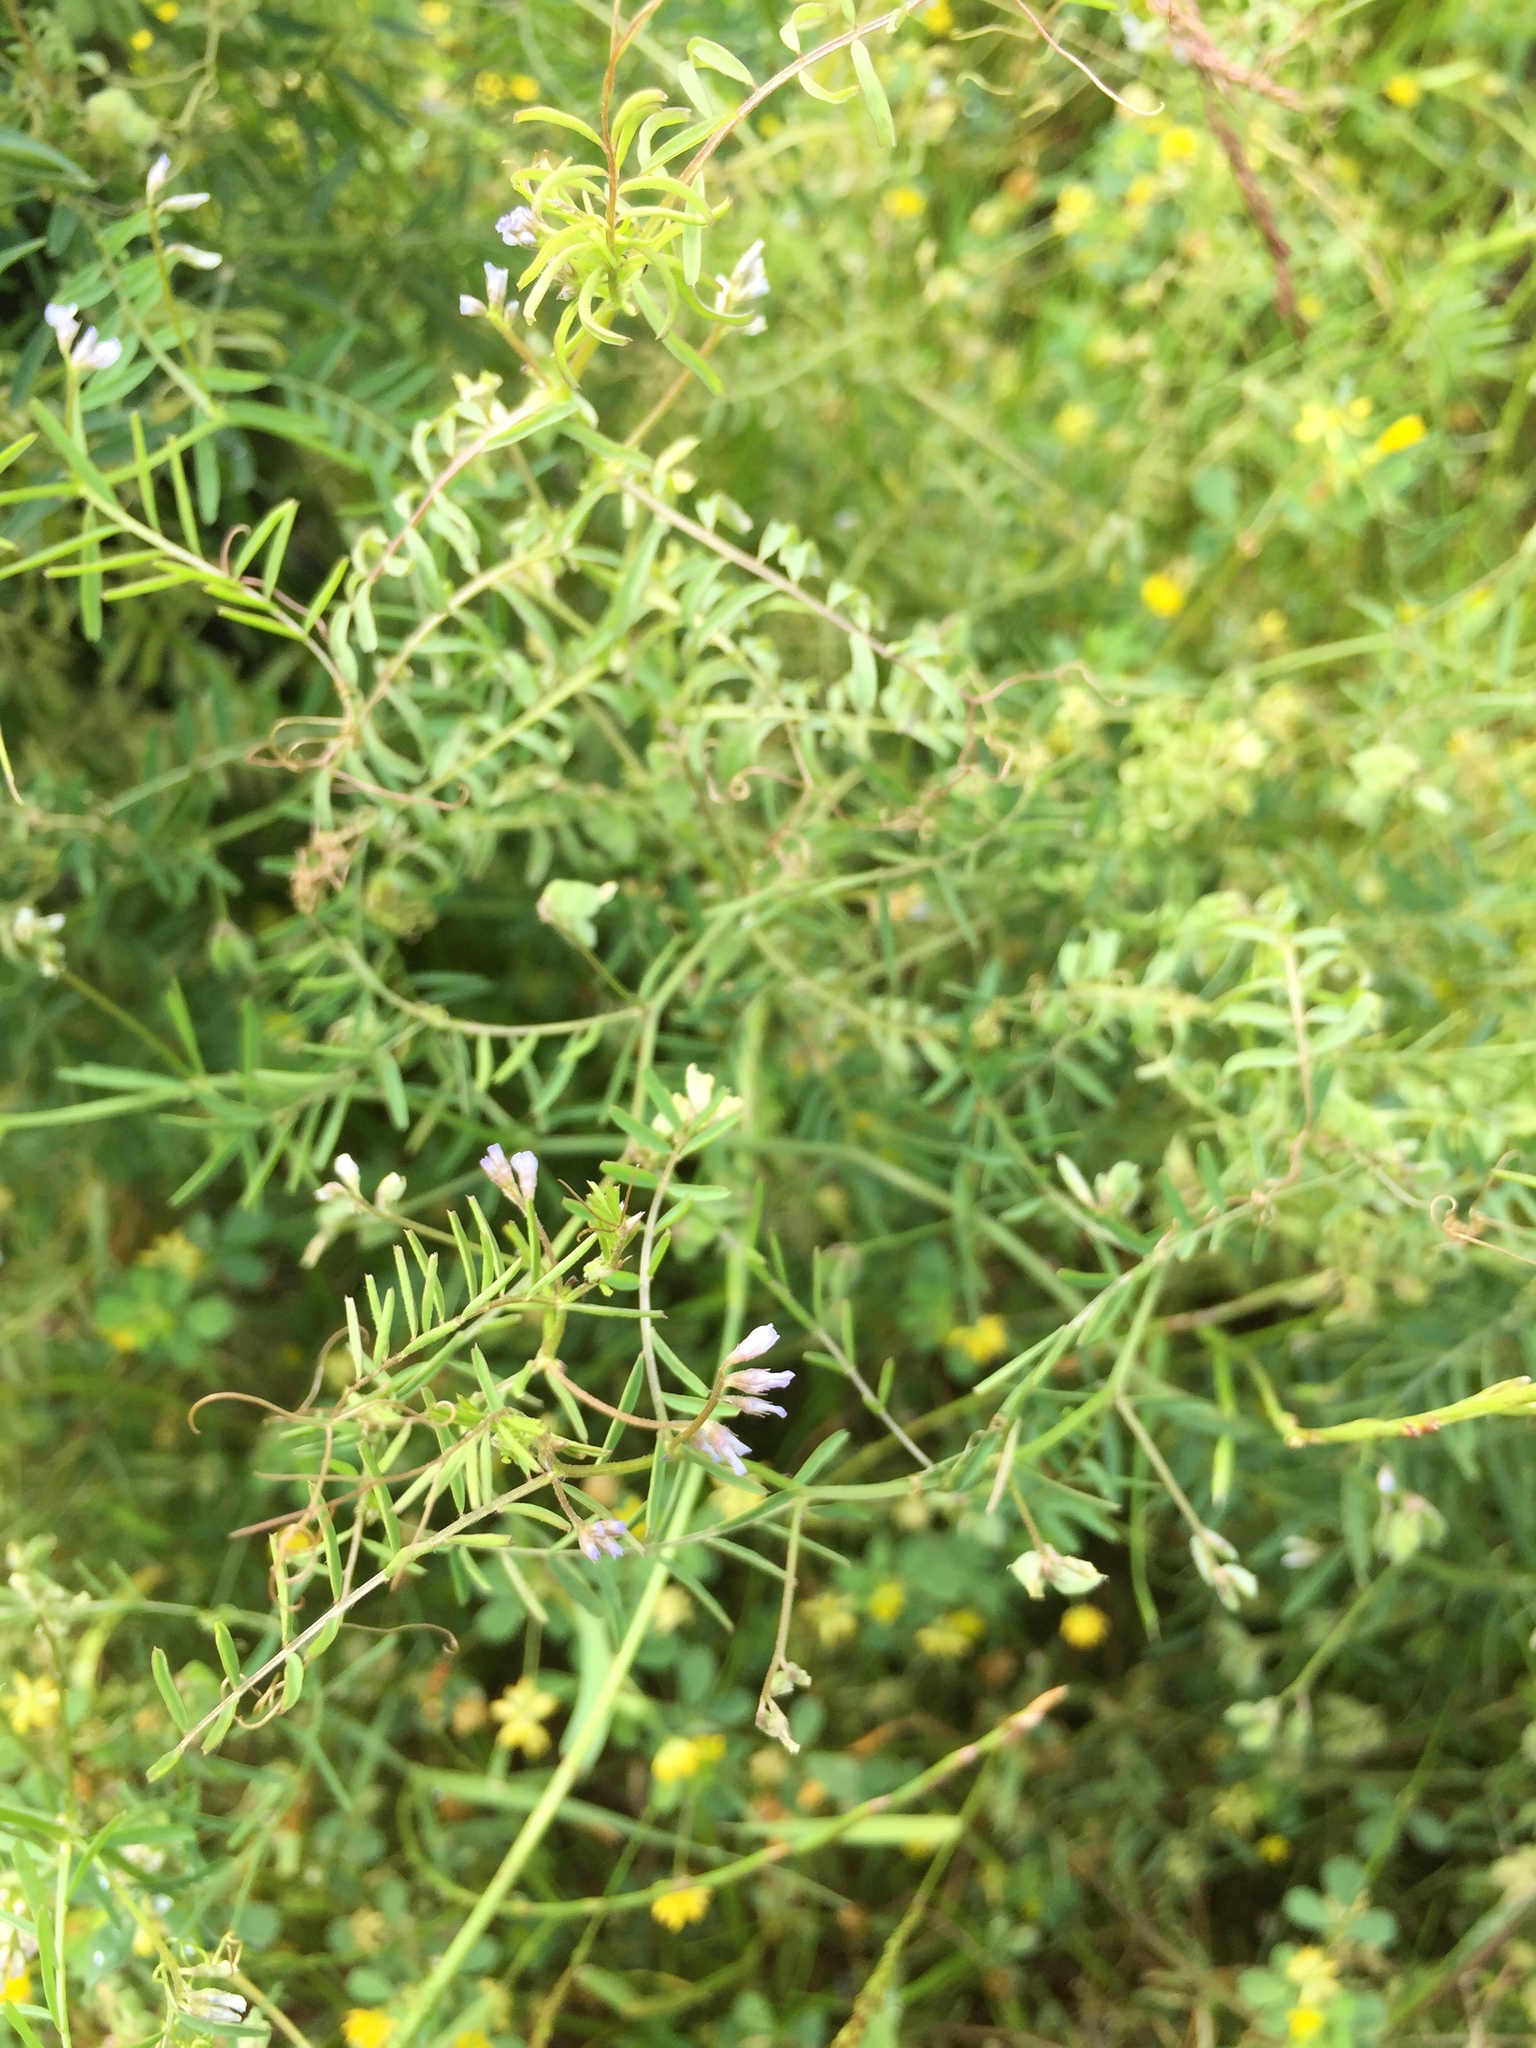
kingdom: Plantae
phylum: Tracheophyta
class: Magnoliopsida
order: Fabales
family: Fabaceae
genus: Vicia
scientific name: Vicia hirsuta
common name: Tiny vetch
